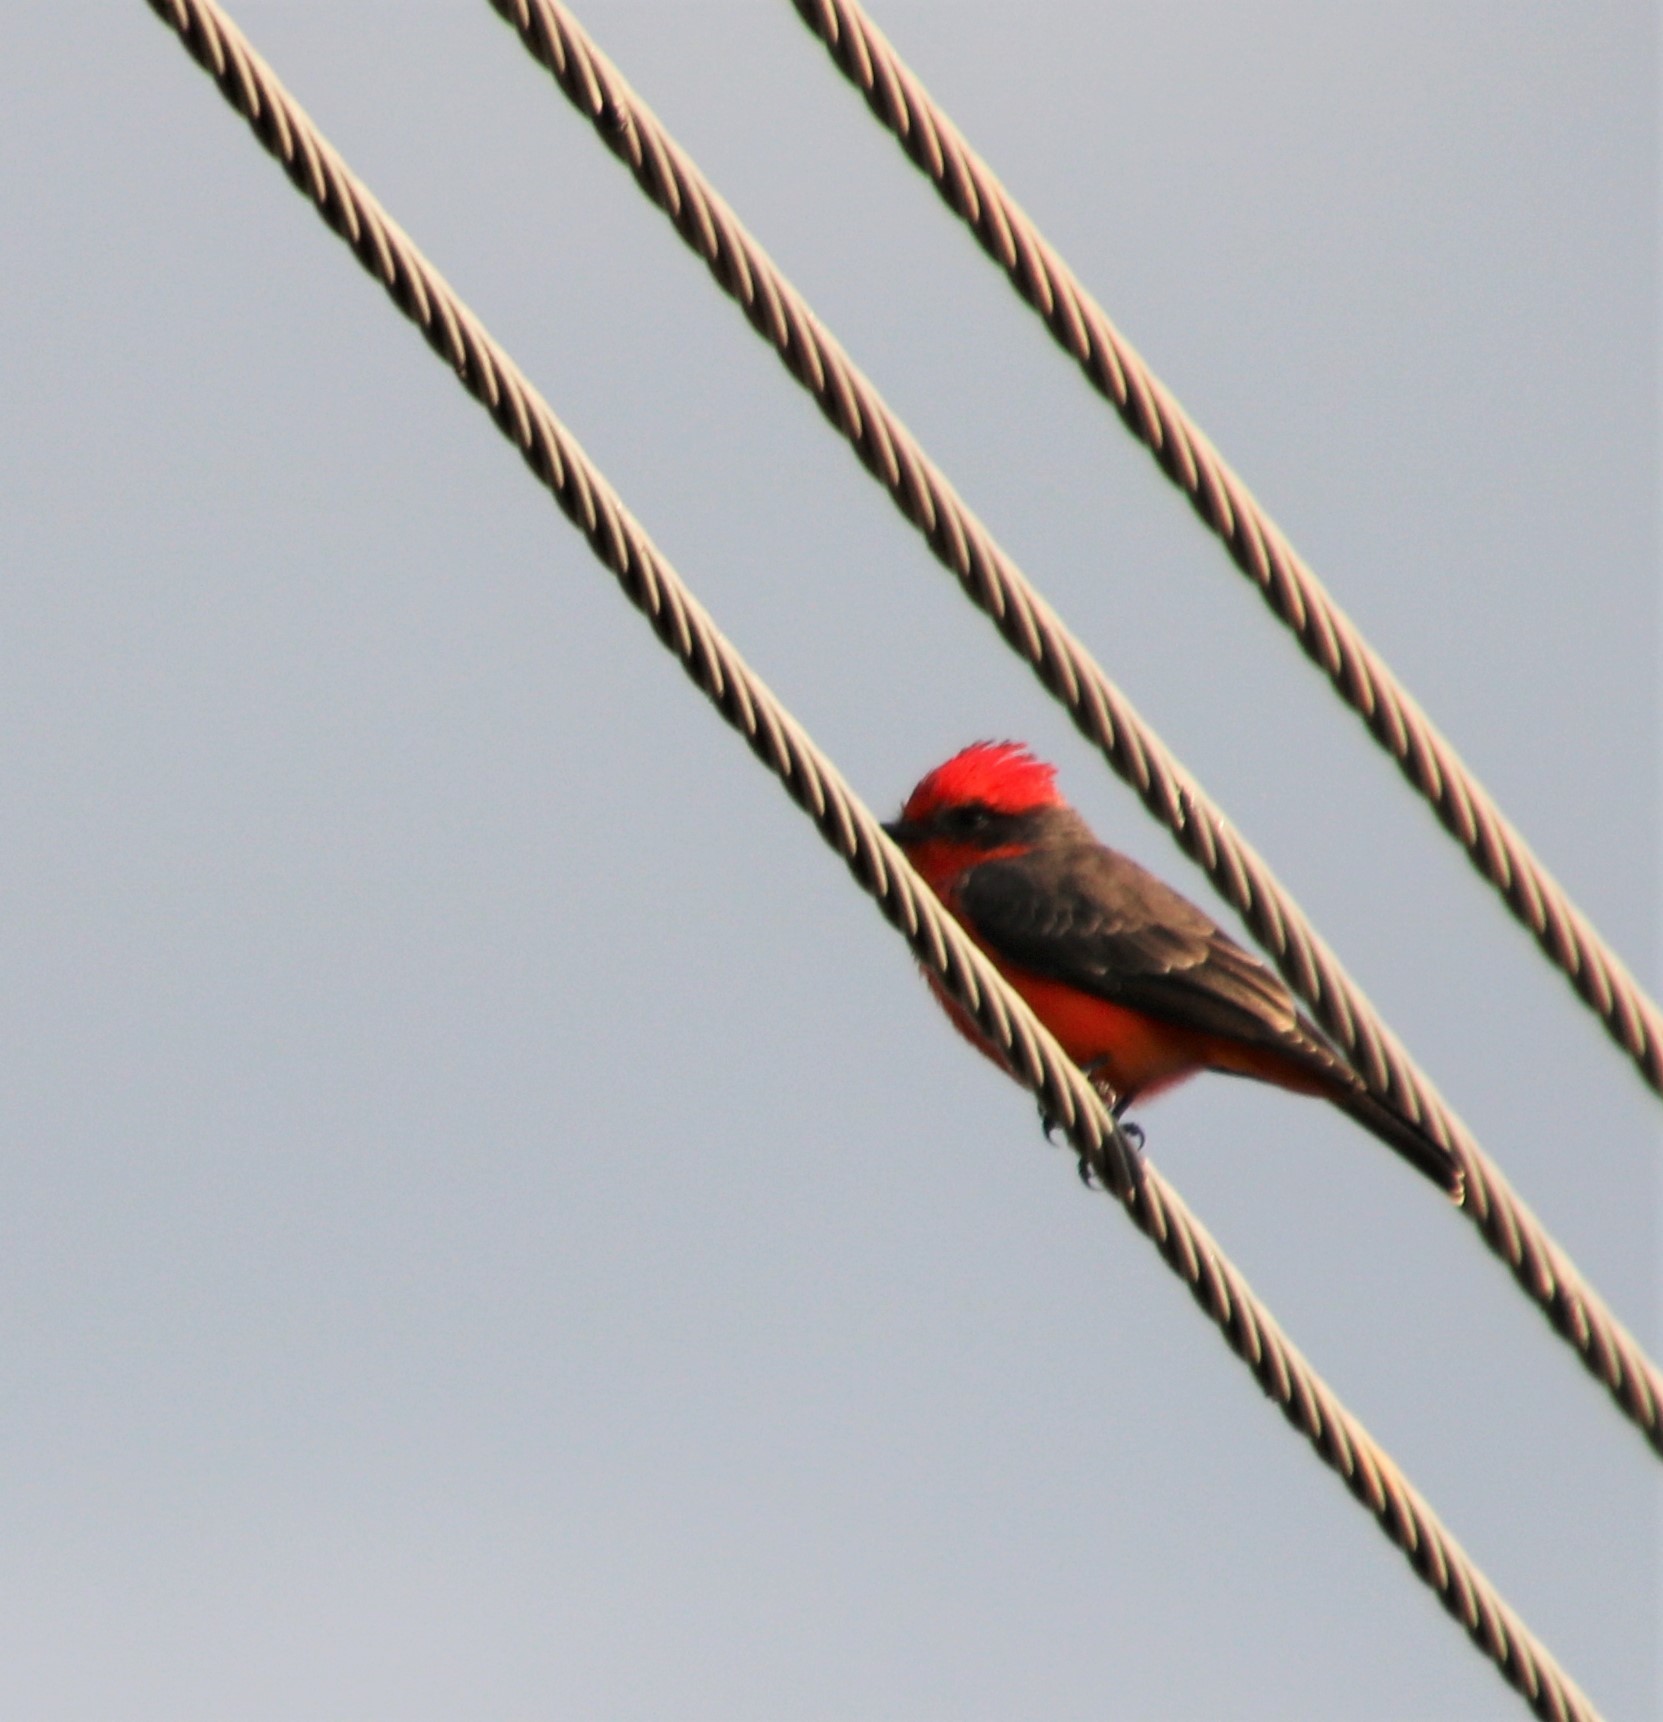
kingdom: Animalia
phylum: Chordata
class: Aves
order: Passeriformes
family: Tyrannidae
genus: Pyrocephalus
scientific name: Pyrocephalus rubinus
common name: Vermilion flycatcher
